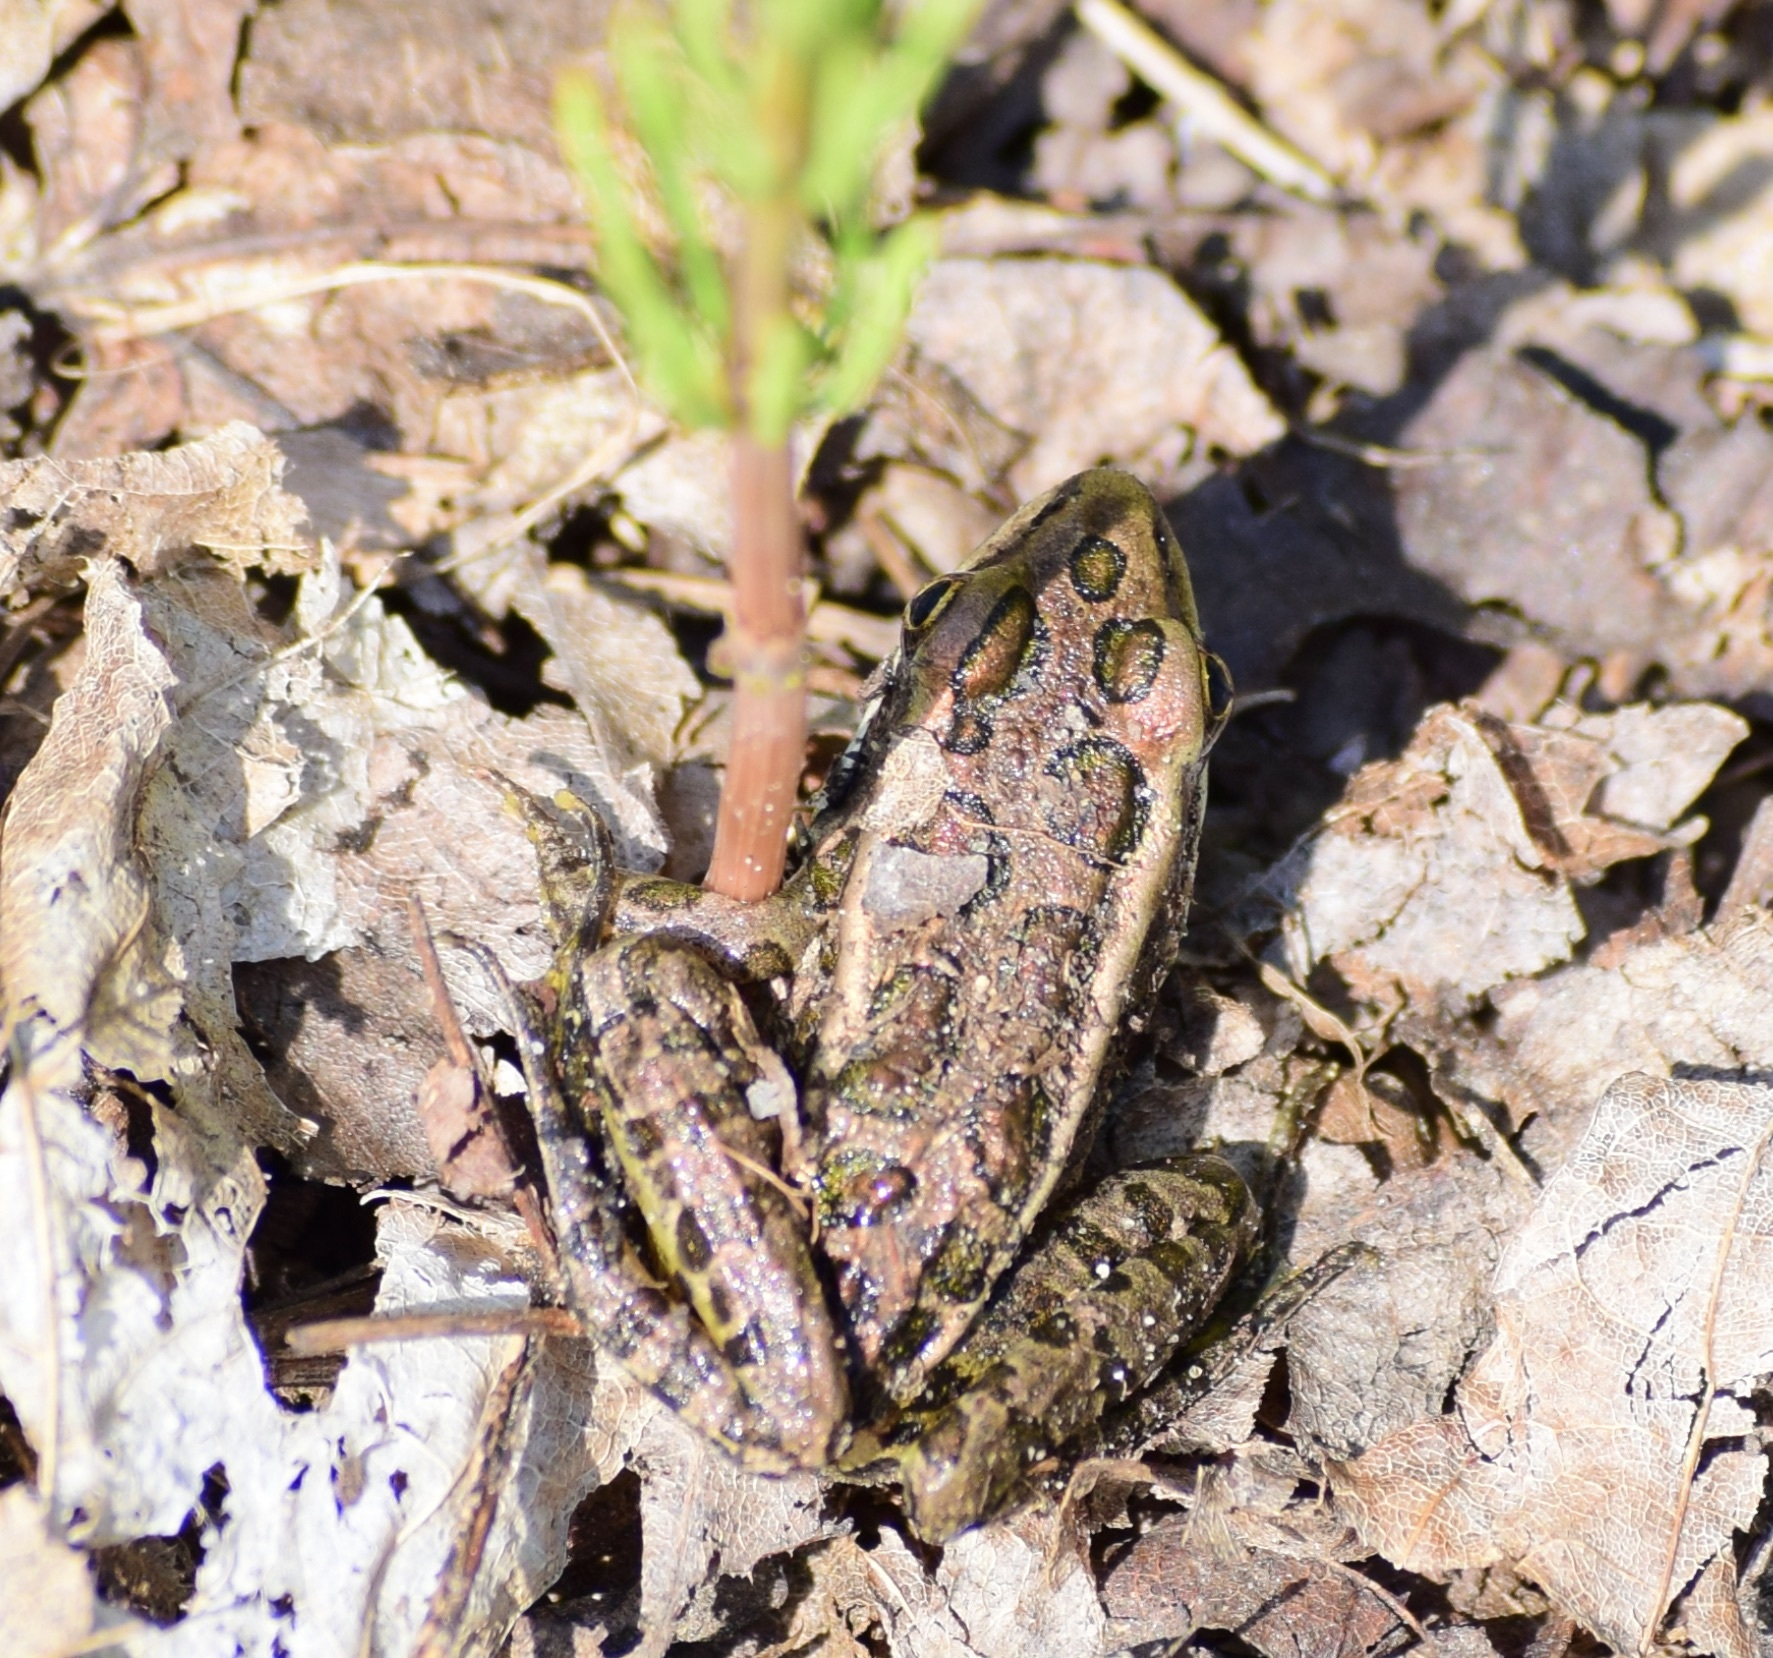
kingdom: Animalia
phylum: Chordata
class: Amphibia
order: Anura
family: Ranidae
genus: Lithobates
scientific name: Lithobates palustris
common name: Pickerel frog
